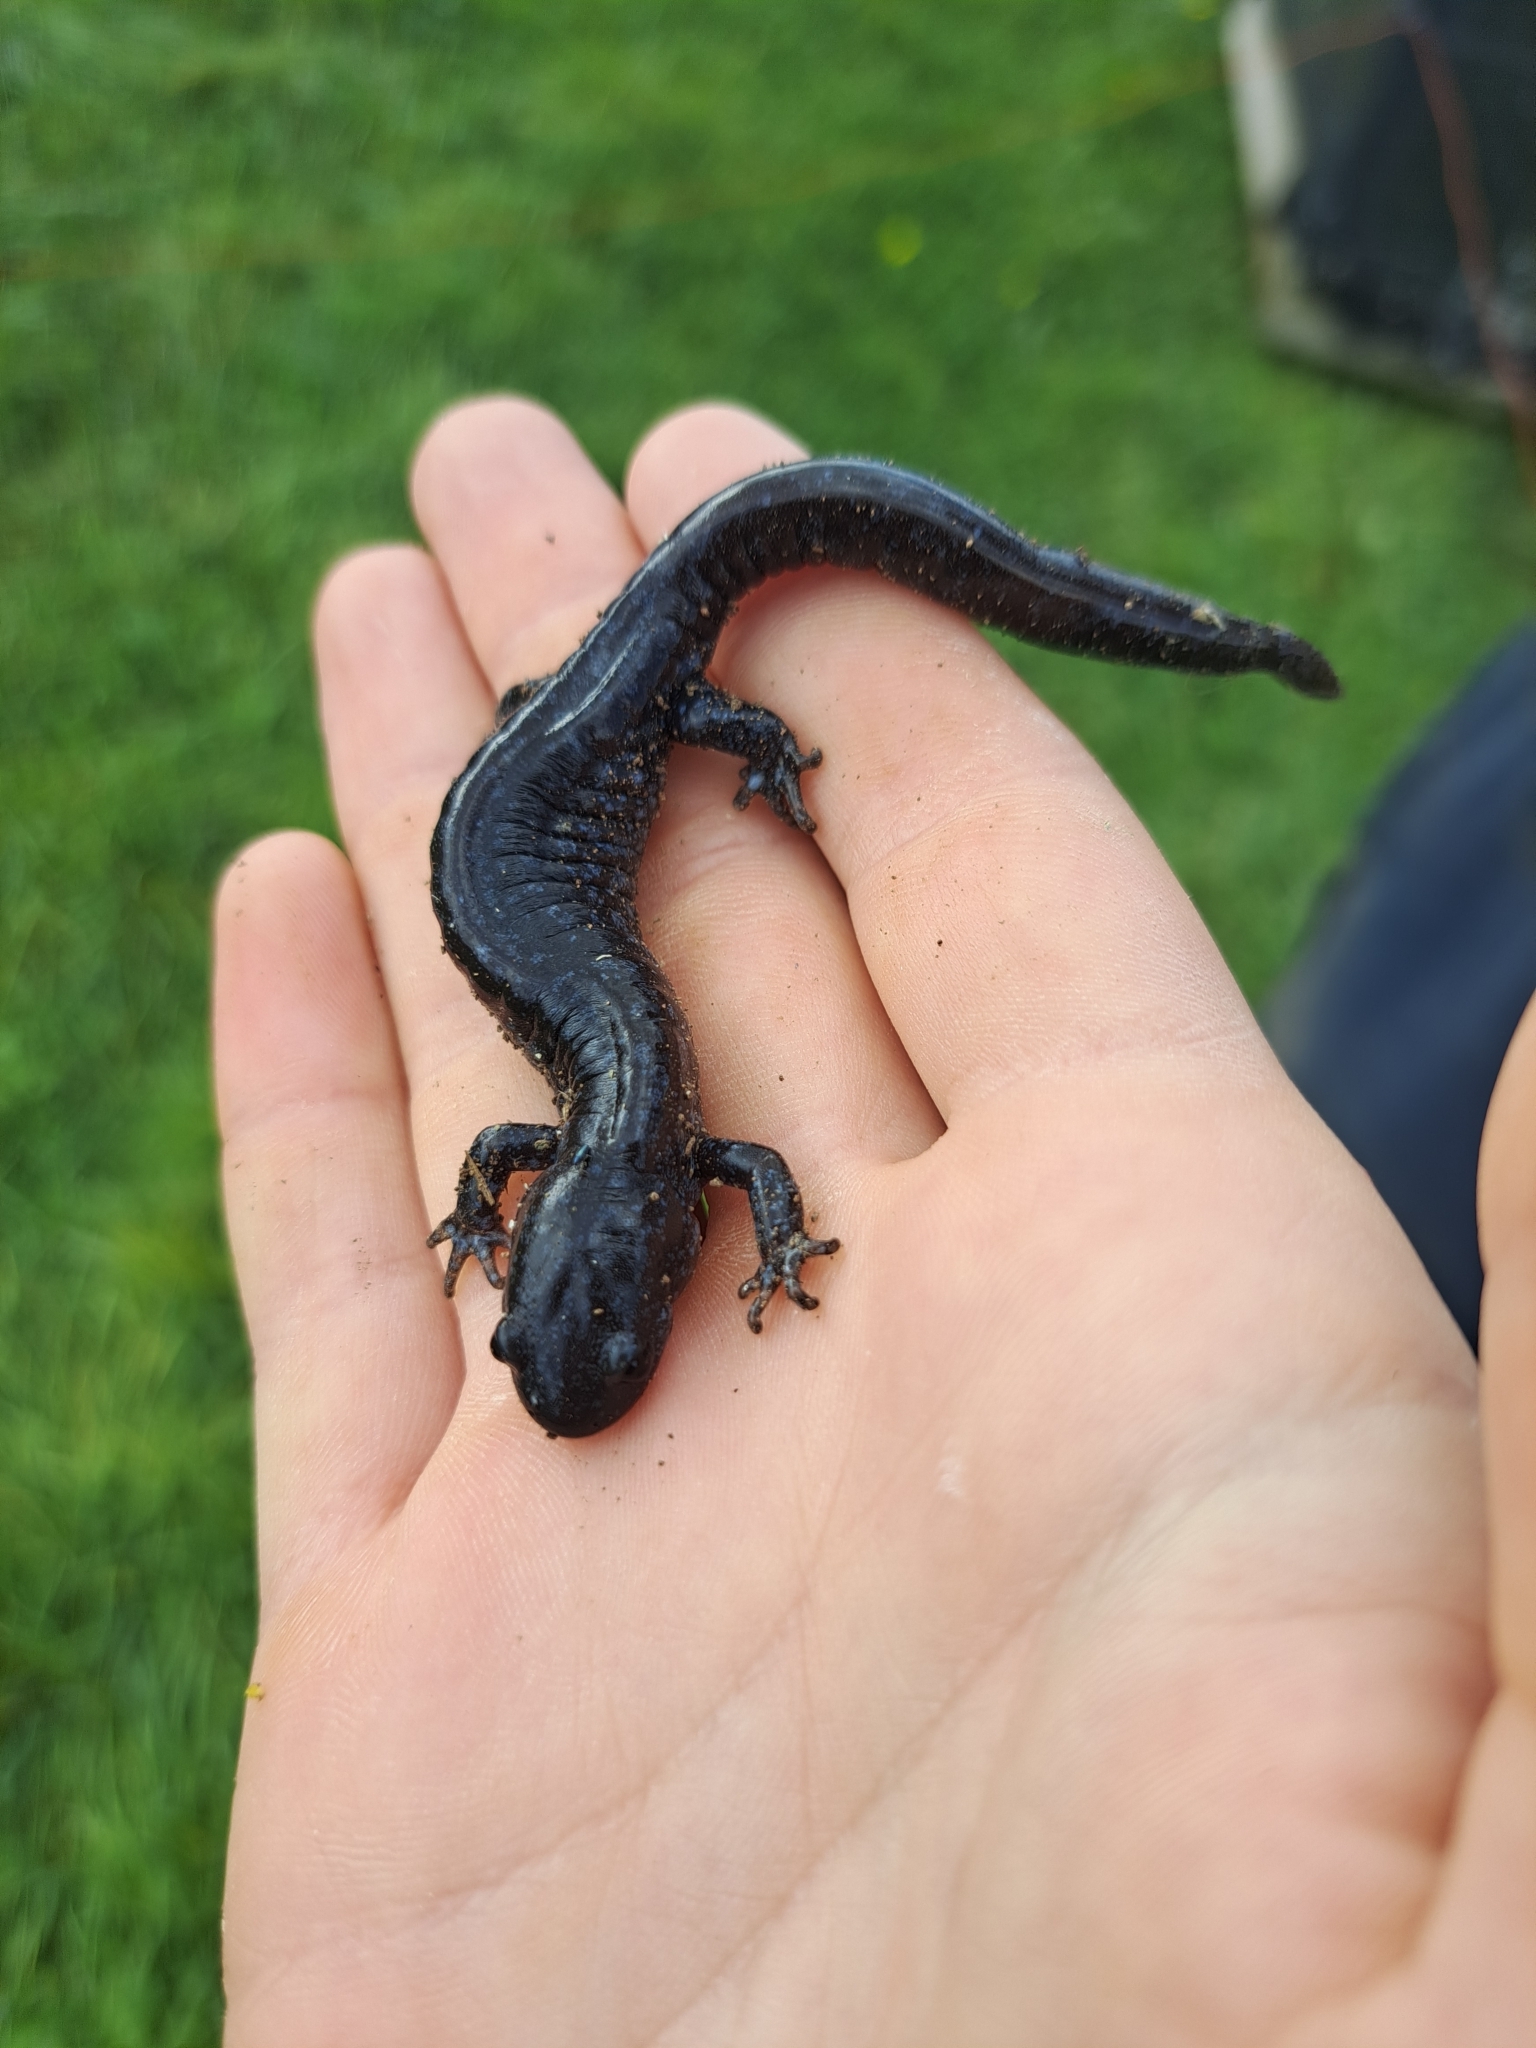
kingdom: Animalia
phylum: Chordata
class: Amphibia
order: Caudata
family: Ambystomatidae
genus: Ambystoma
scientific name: Ambystoma laterale
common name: Blue-spotted salamander
